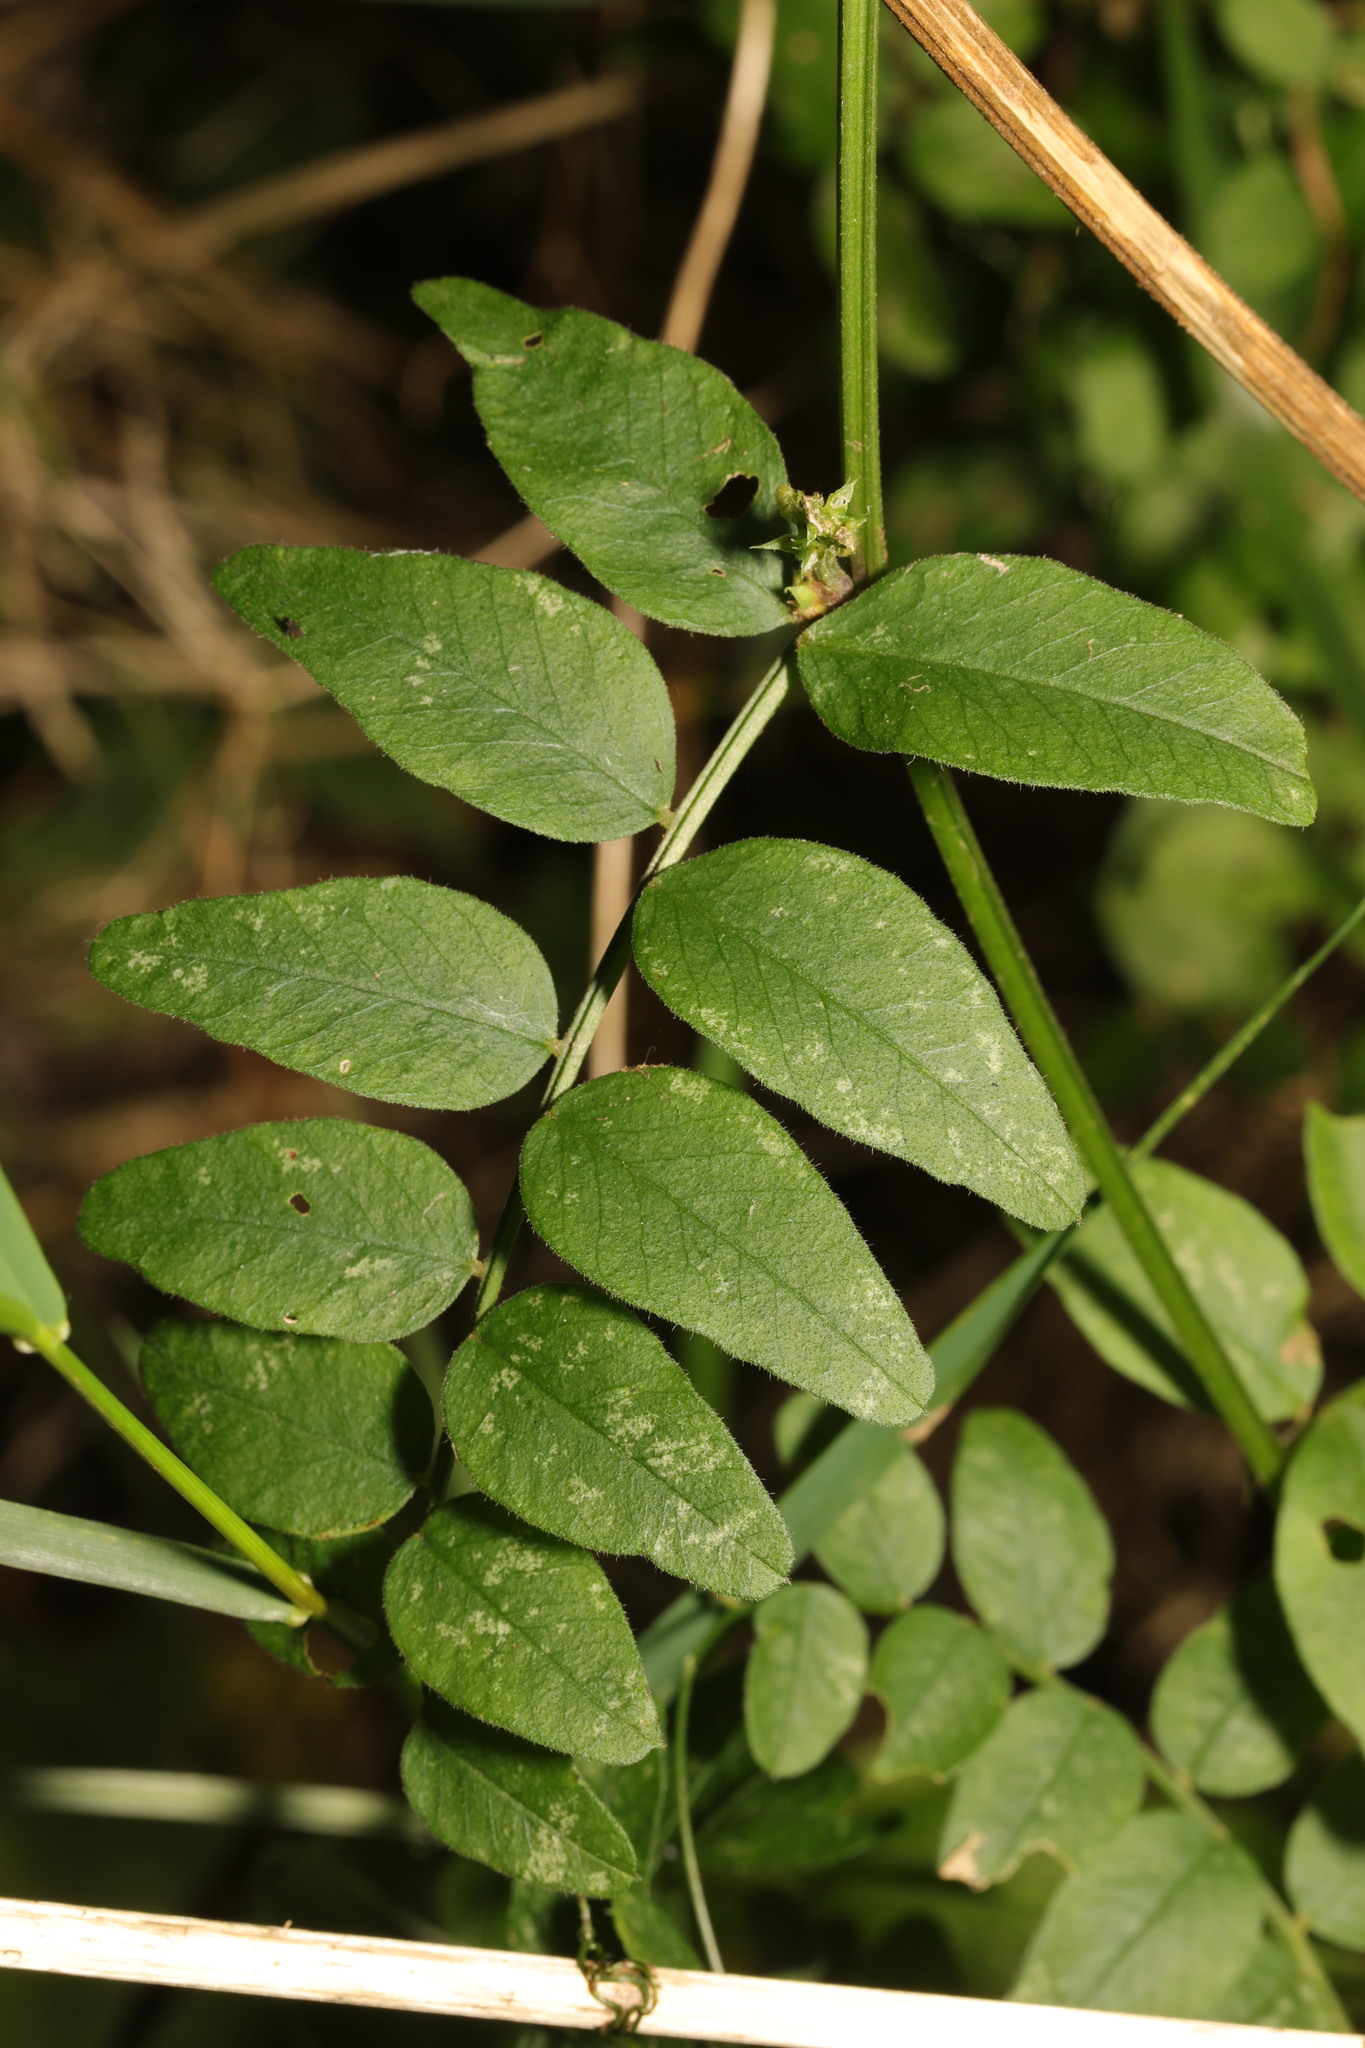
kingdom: Plantae
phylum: Tracheophyta
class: Magnoliopsida
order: Fabales
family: Fabaceae
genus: Vicia
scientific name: Vicia sepium
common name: Bush vetch
